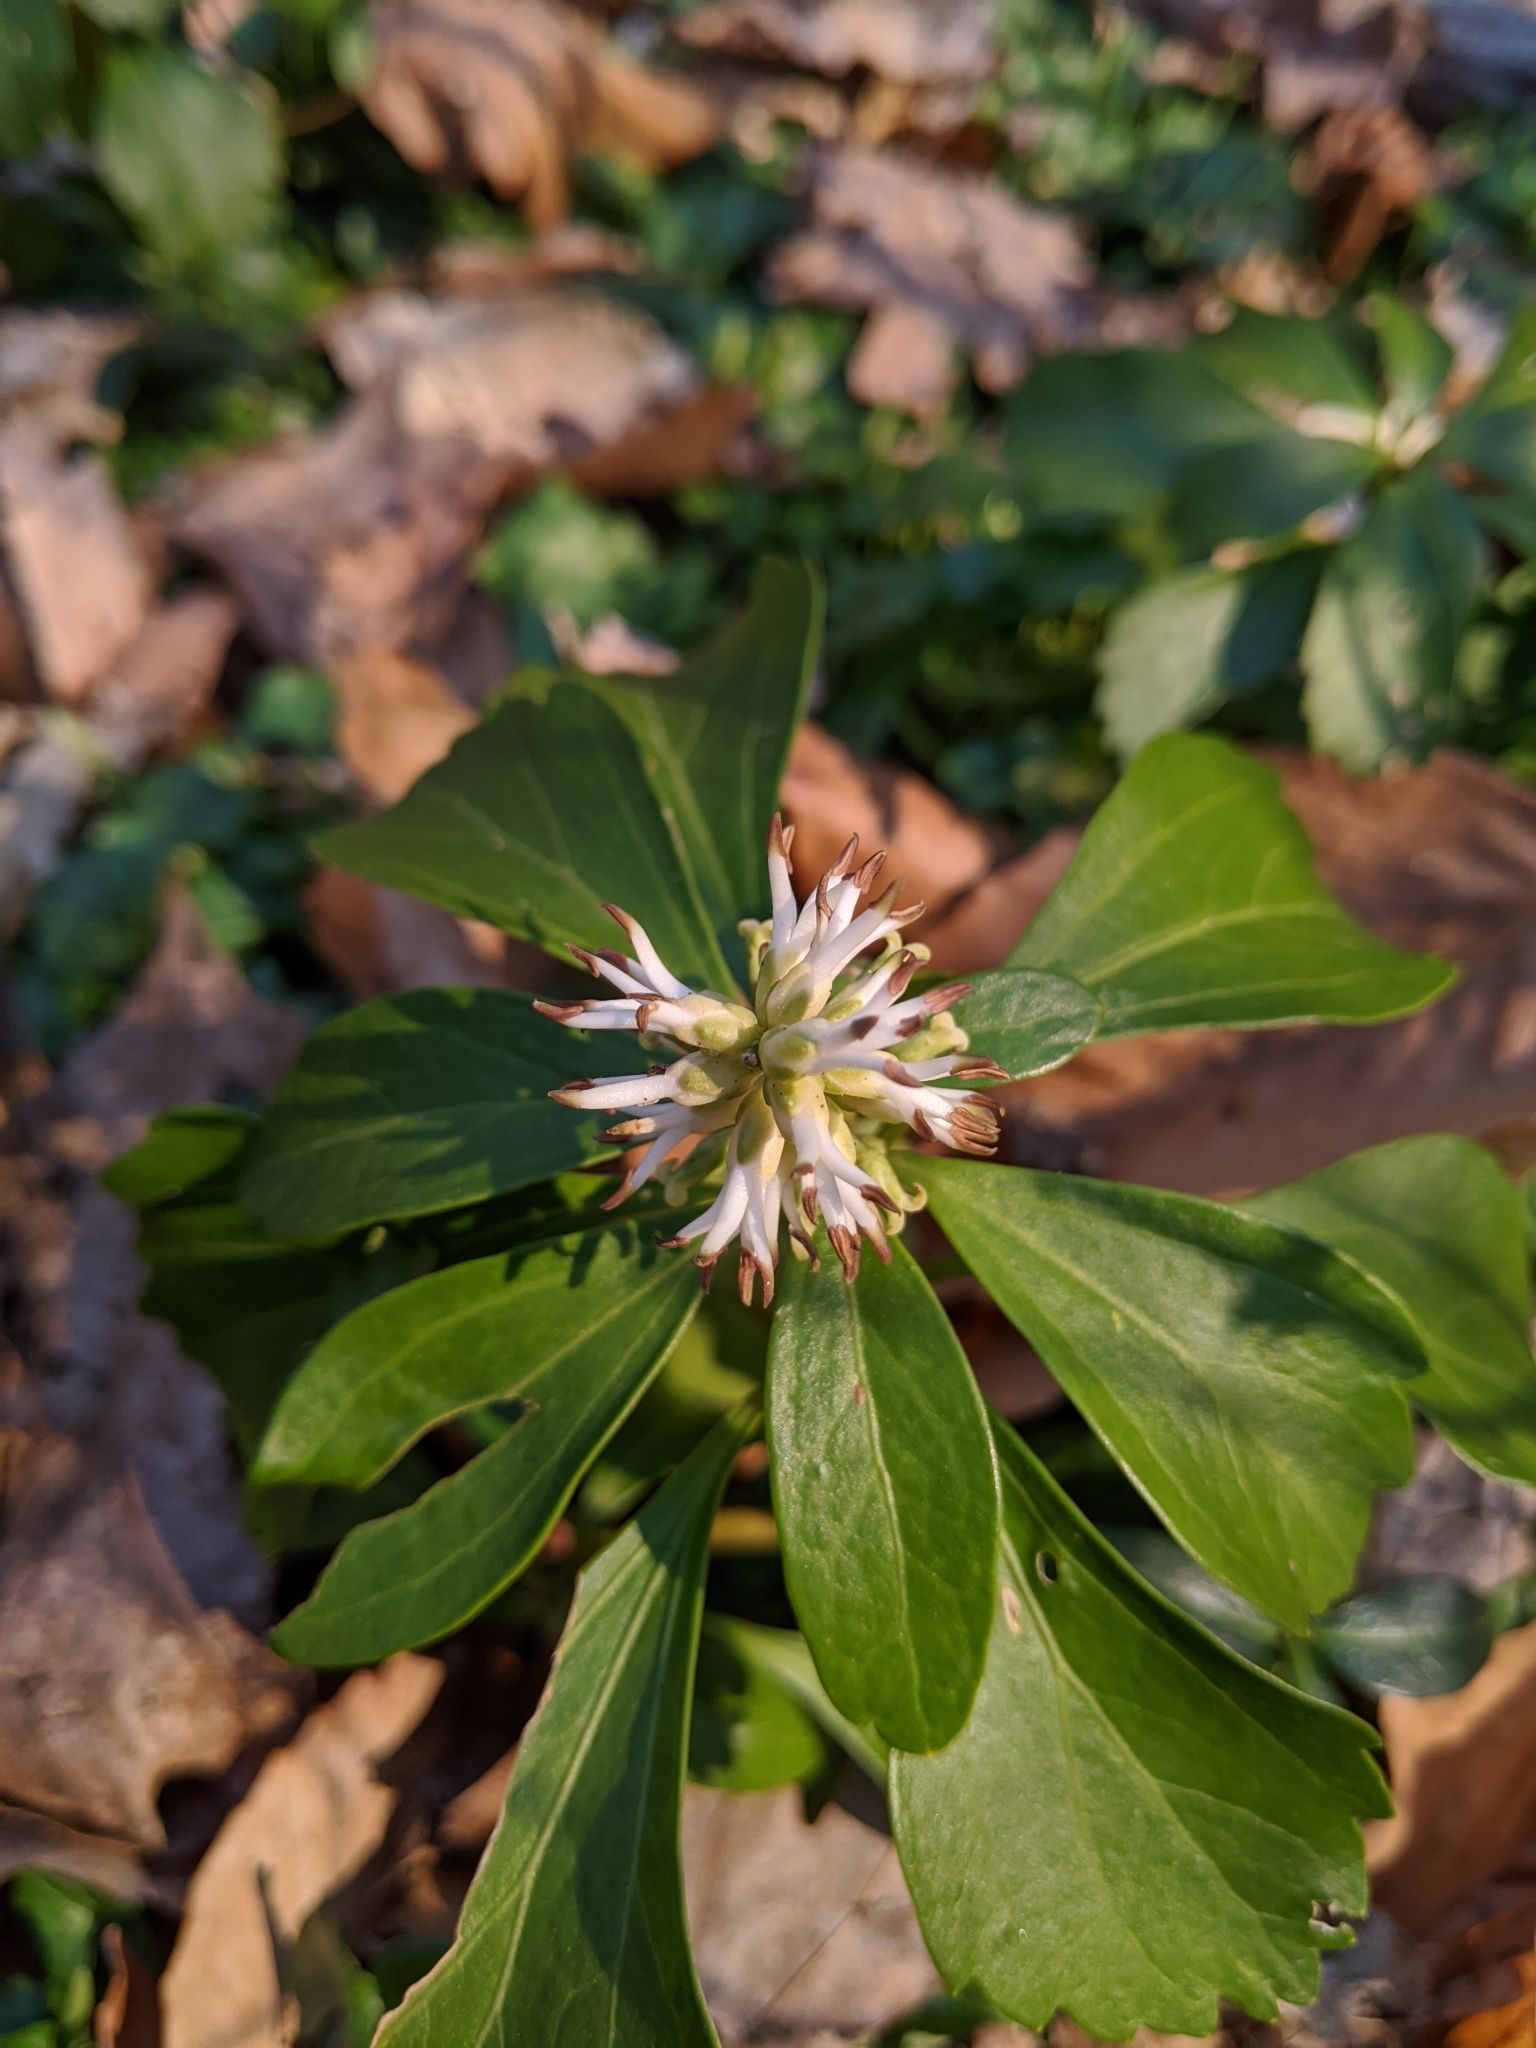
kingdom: Plantae
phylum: Tracheophyta
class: Magnoliopsida
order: Buxales
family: Buxaceae
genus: Pachysandra
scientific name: Pachysandra terminalis
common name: Japanese pachysandra
